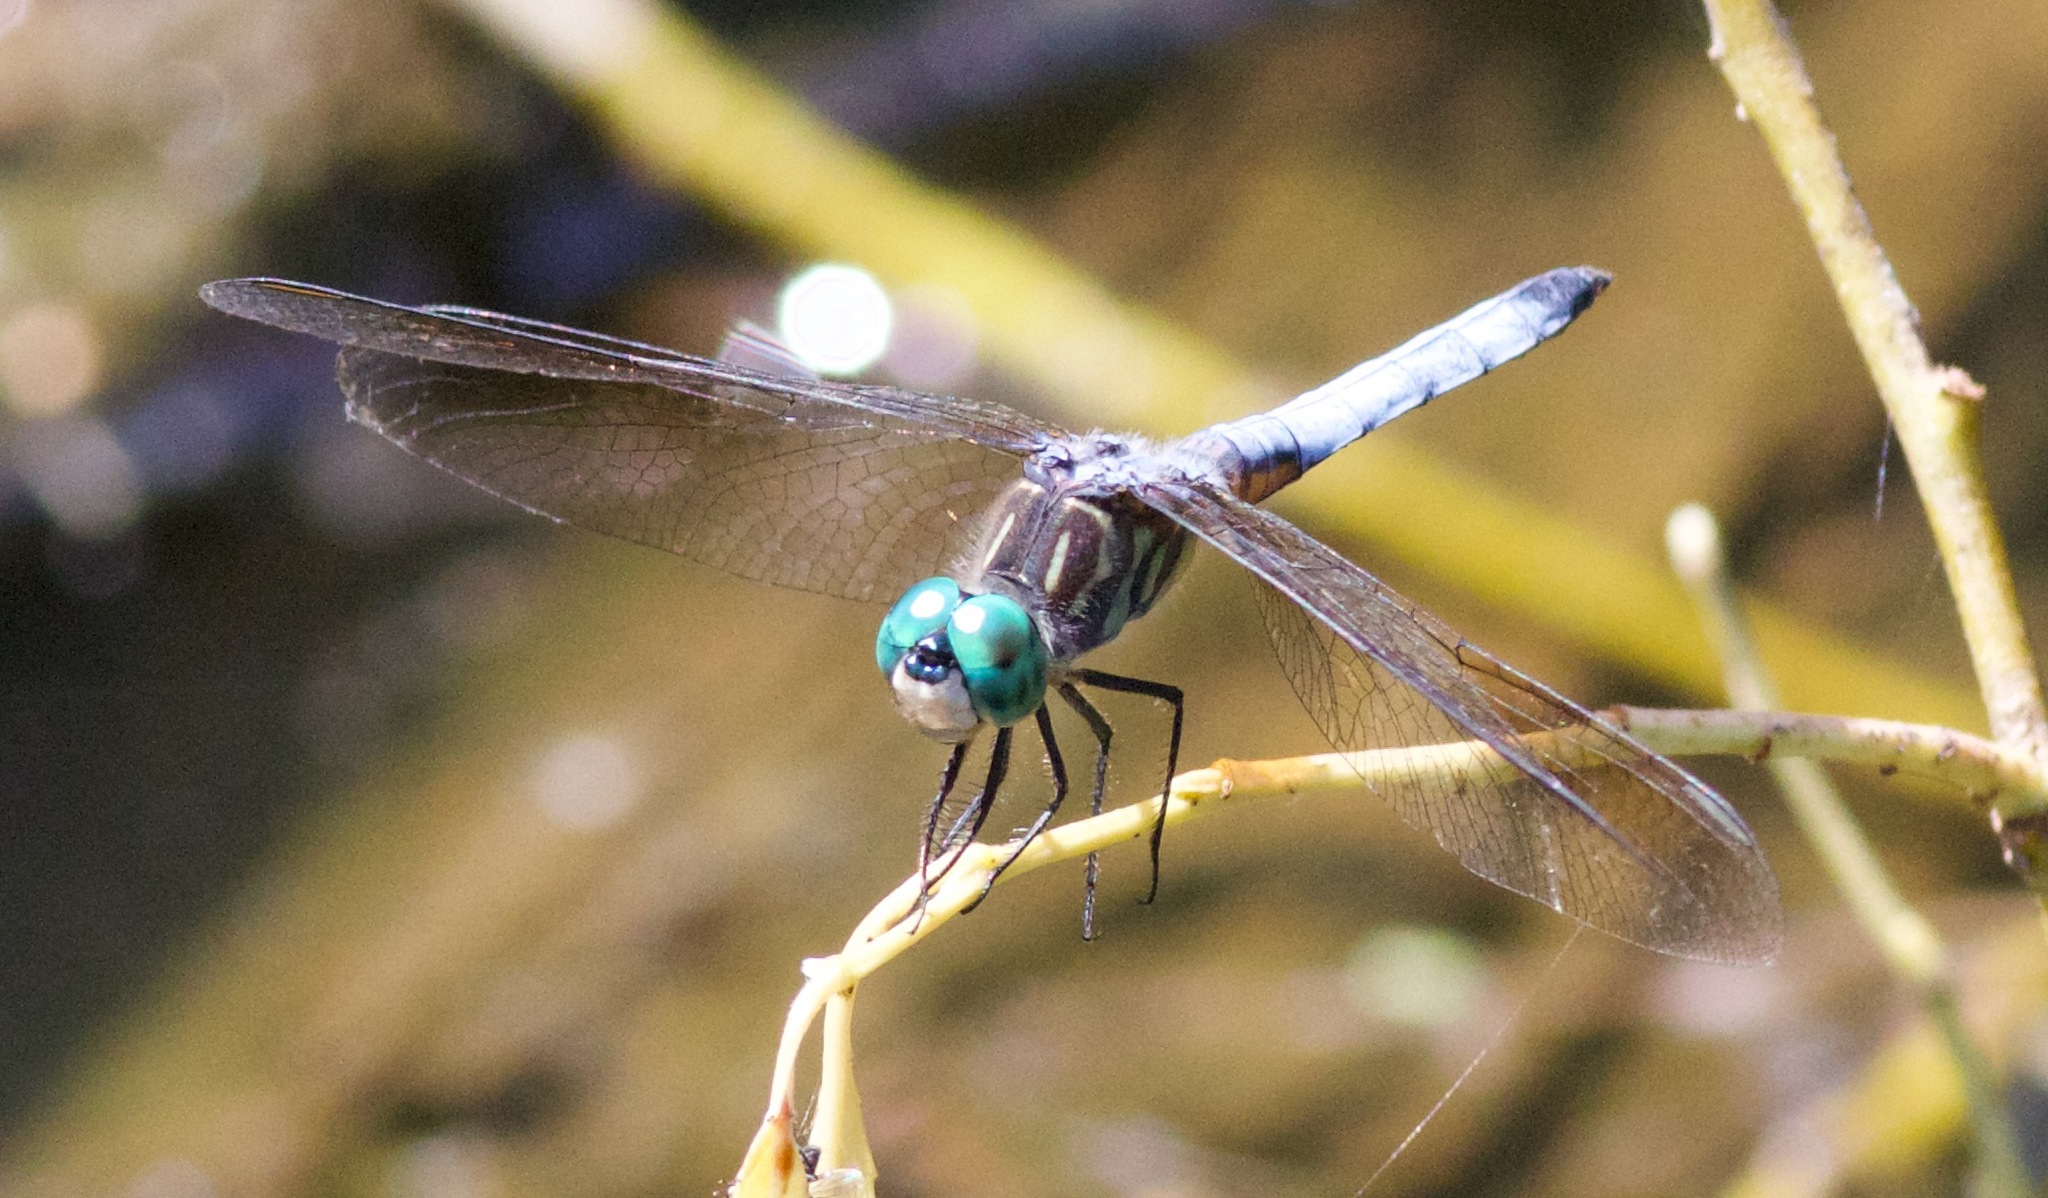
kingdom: Animalia
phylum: Arthropoda
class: Insecta
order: Odonata
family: Libellulidae
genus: Pachydiplax
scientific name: Pachydiplax longipennis
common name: Blue dasher
